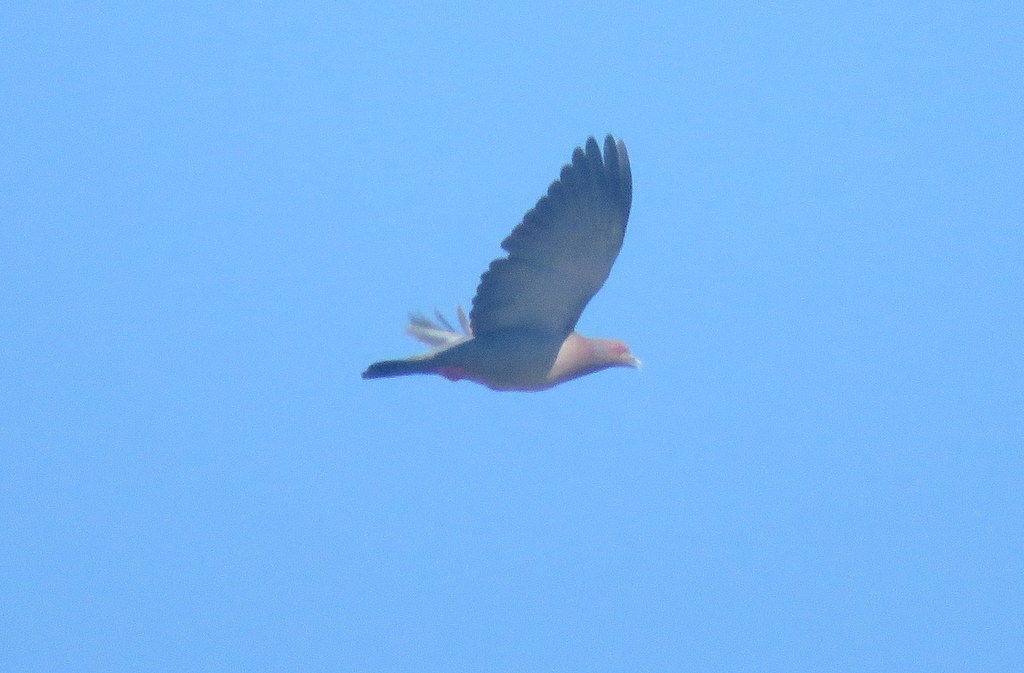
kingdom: Animalia
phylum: Chordata
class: Aves
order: Columbiformes
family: Columbidae
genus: Patagioenas
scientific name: Patagioenas picazuro
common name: Picazuro pigeon
